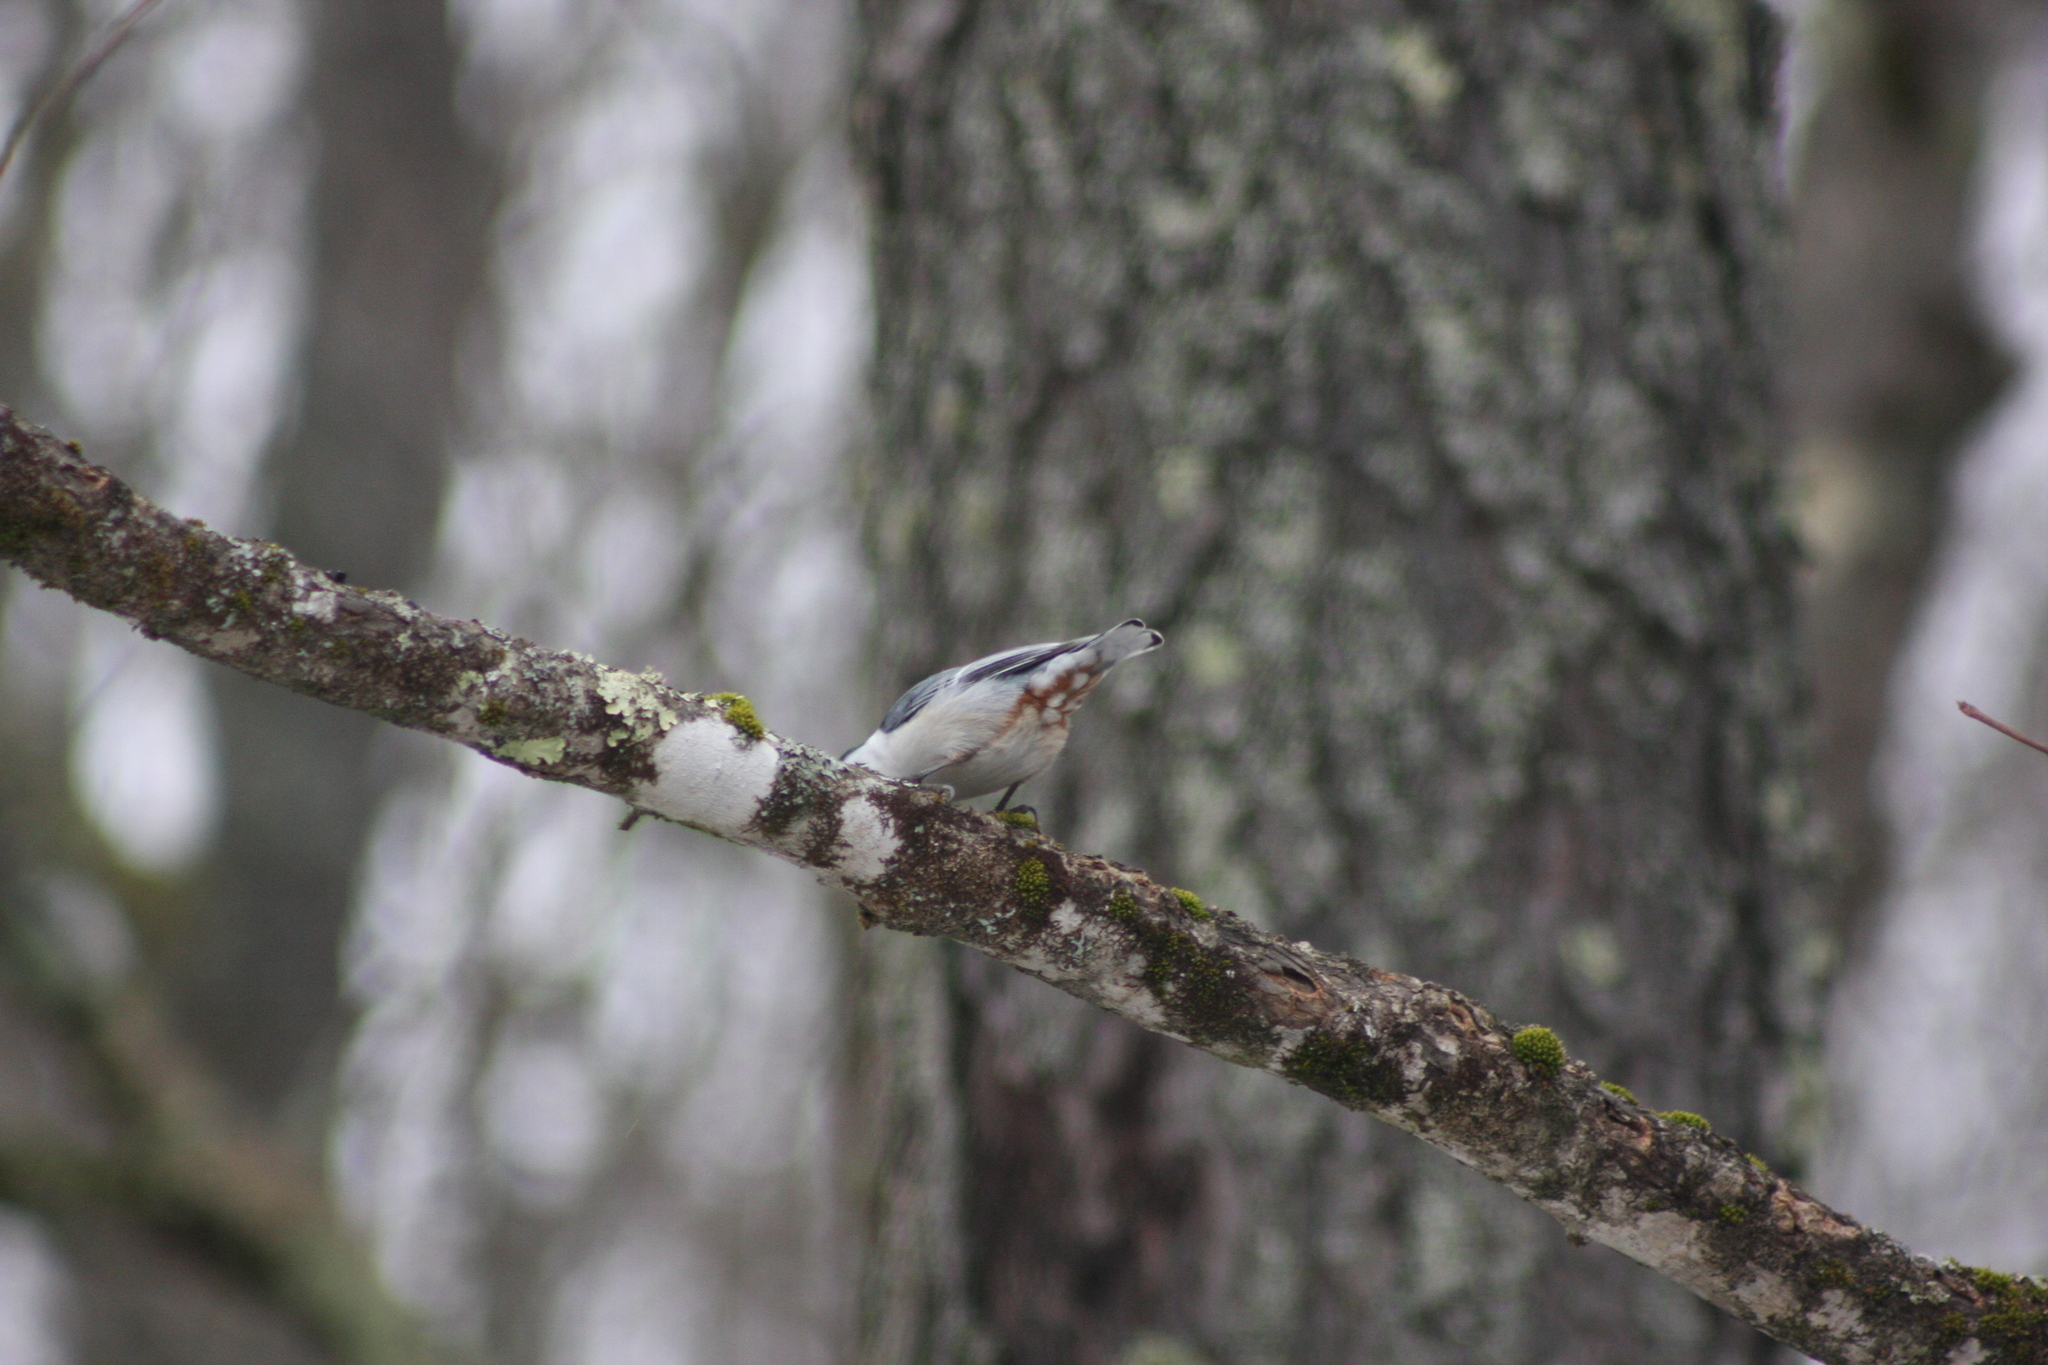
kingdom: Animalia
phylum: Chordata
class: Aves
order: Passeriformes
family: Sittidae
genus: Sitta
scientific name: Sitta carolinensis
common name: White-breasted nuthatch
